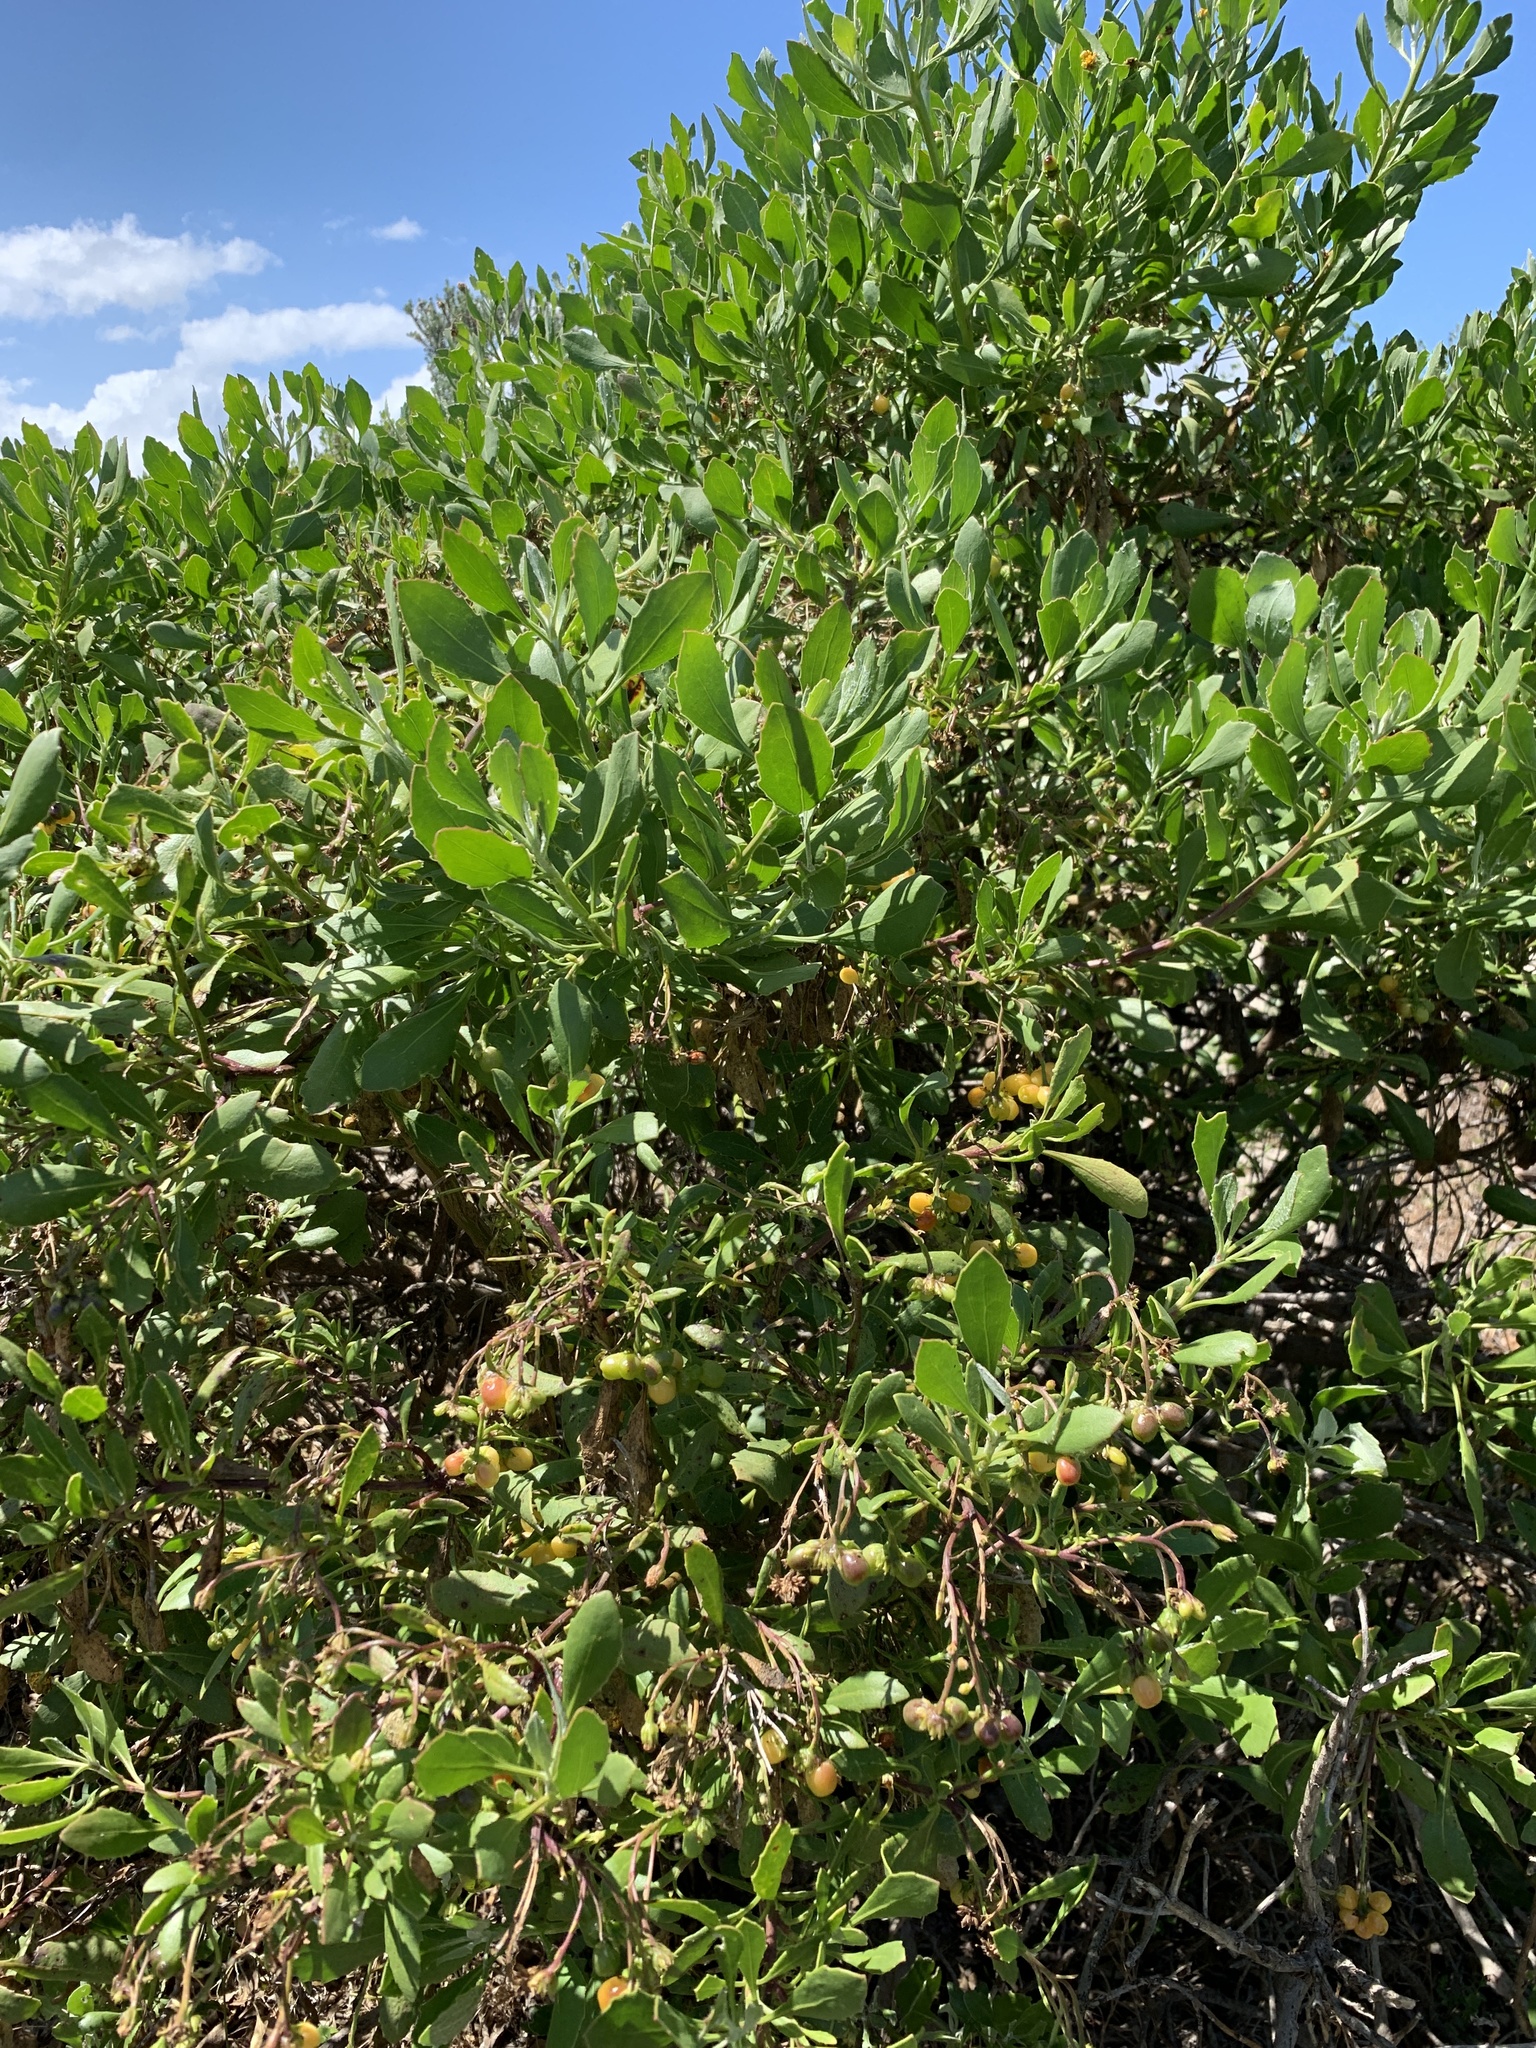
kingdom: Plantae
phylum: Tracheophyta
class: Magnoliopsida
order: Asterales
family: Asteraceae
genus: Osteospermum
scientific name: Osteospermum moniliferum
